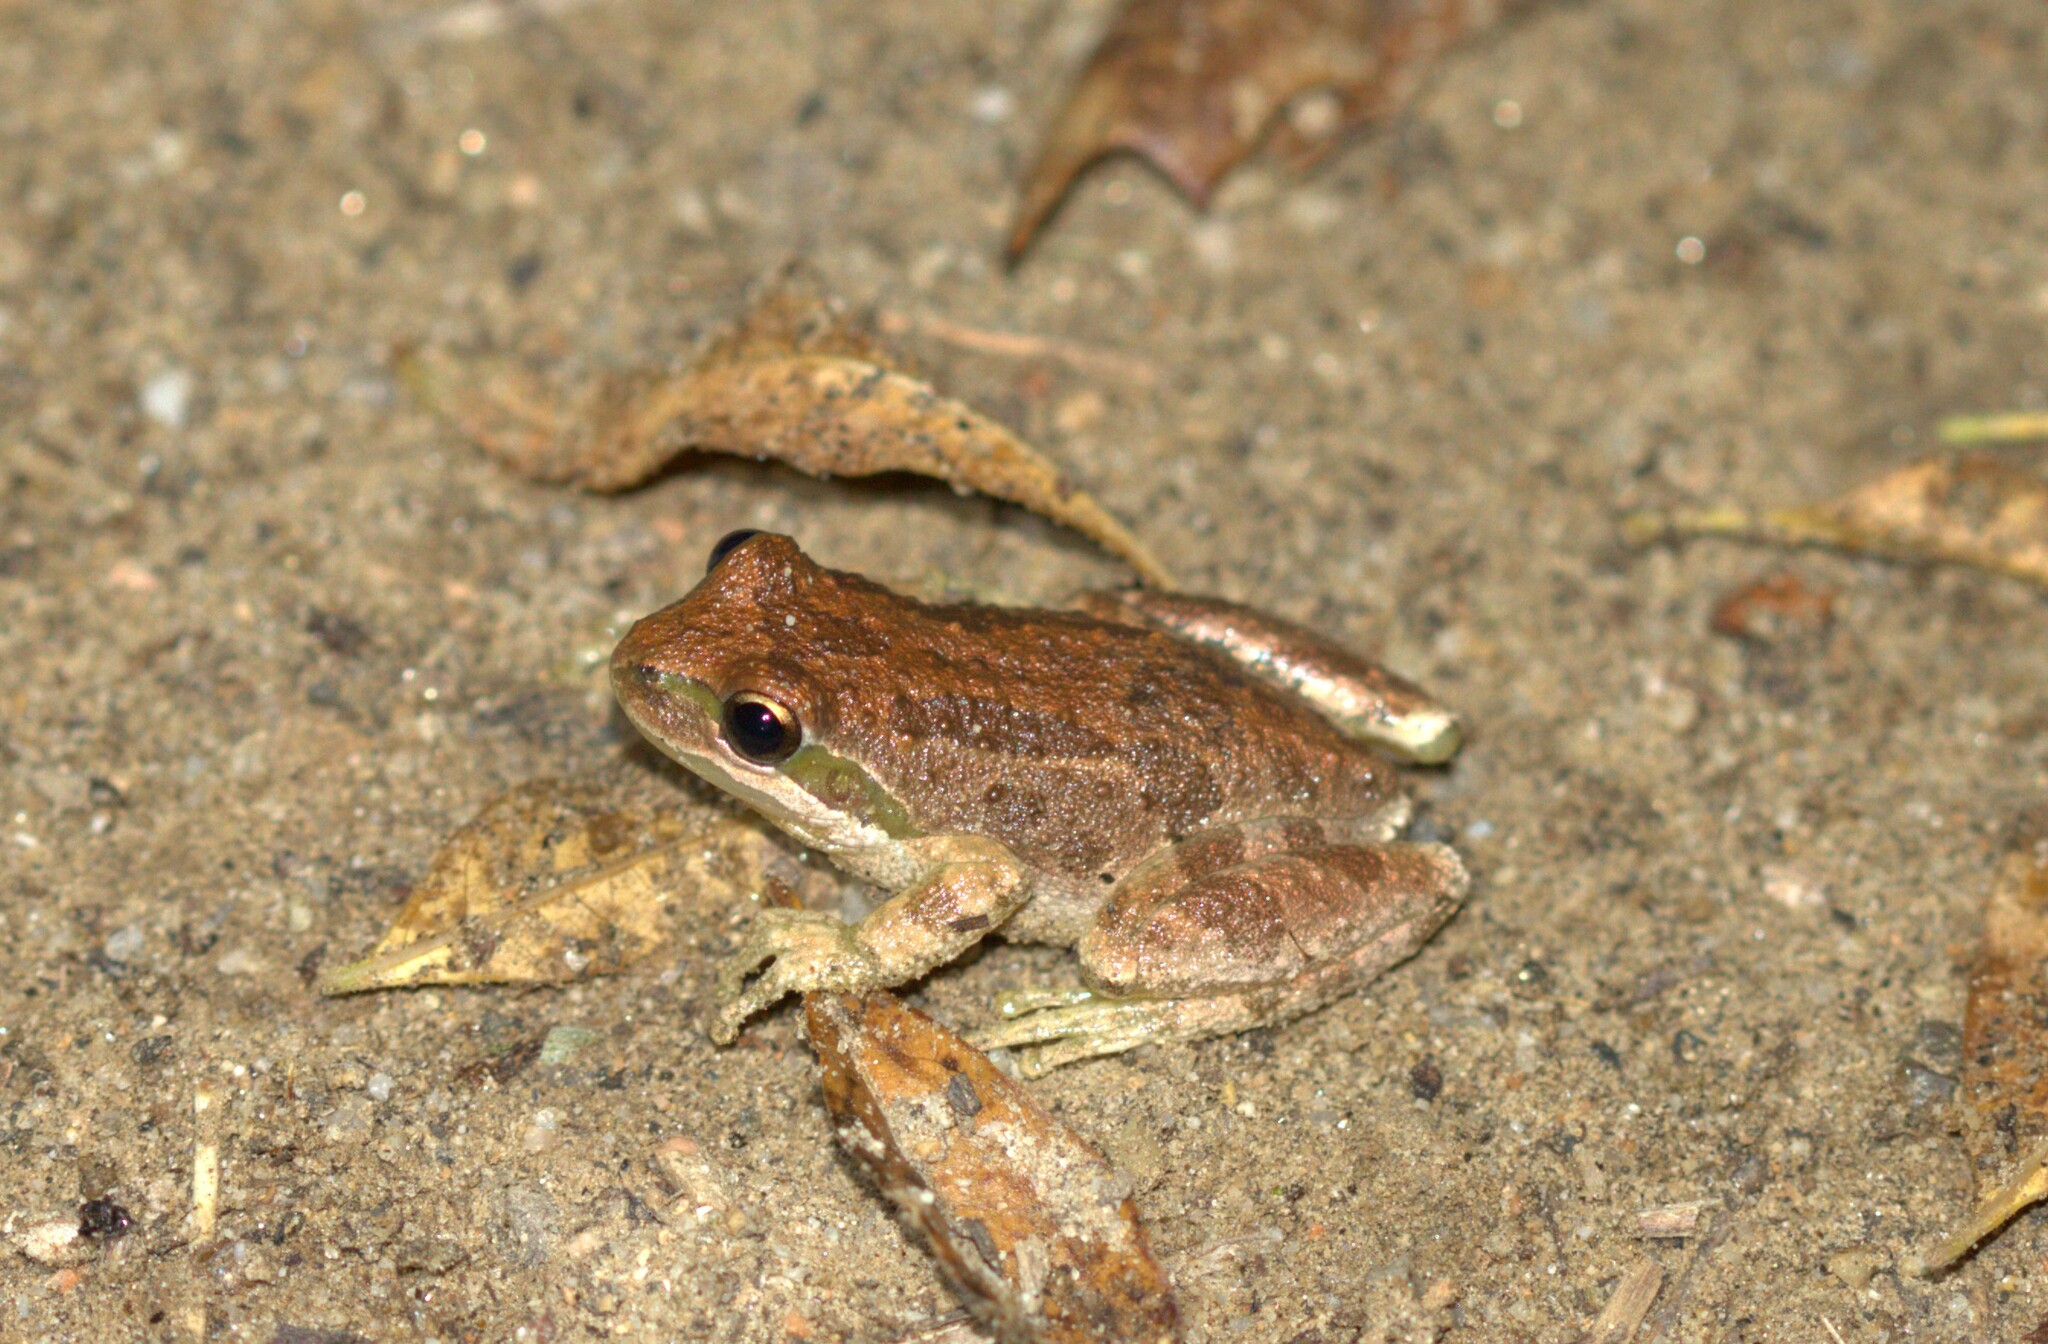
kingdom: Animalia
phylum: Chordata
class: Amphibia
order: Anura
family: Hylidae
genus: Pseudacris
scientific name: Pseudacris regilla
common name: Pacific chorus frog
